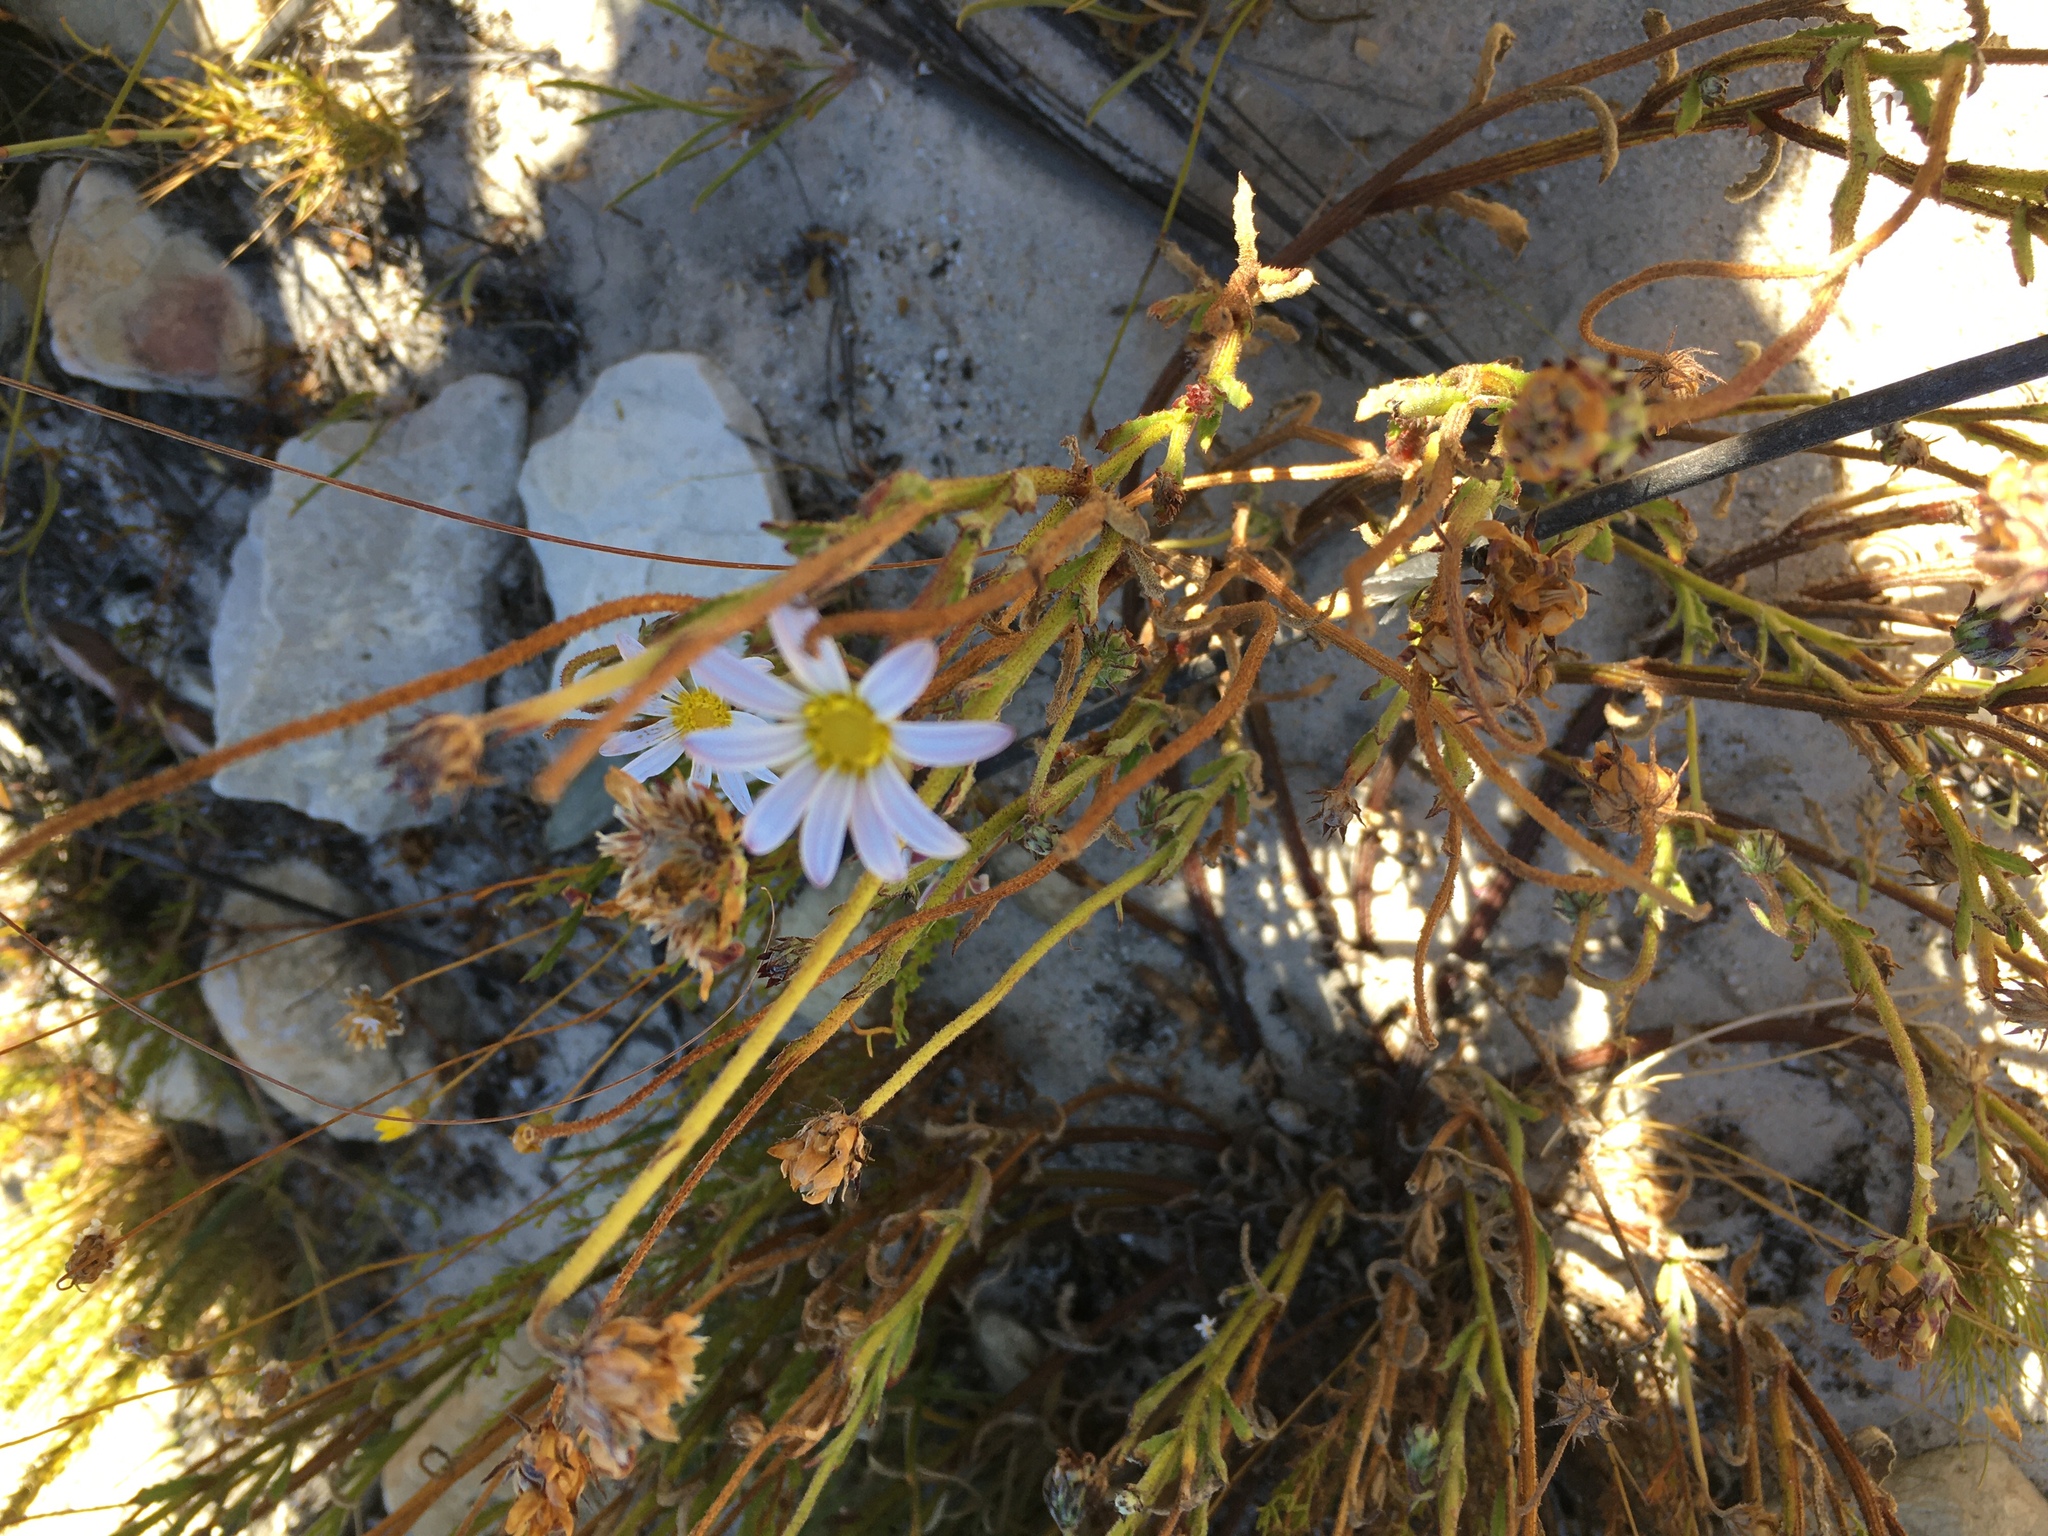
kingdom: Plantae
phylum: Tracheophyta
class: Magnoliopsida
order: Asterales
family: Asteraceae
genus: Arctotis
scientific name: Arctotis acuminata
